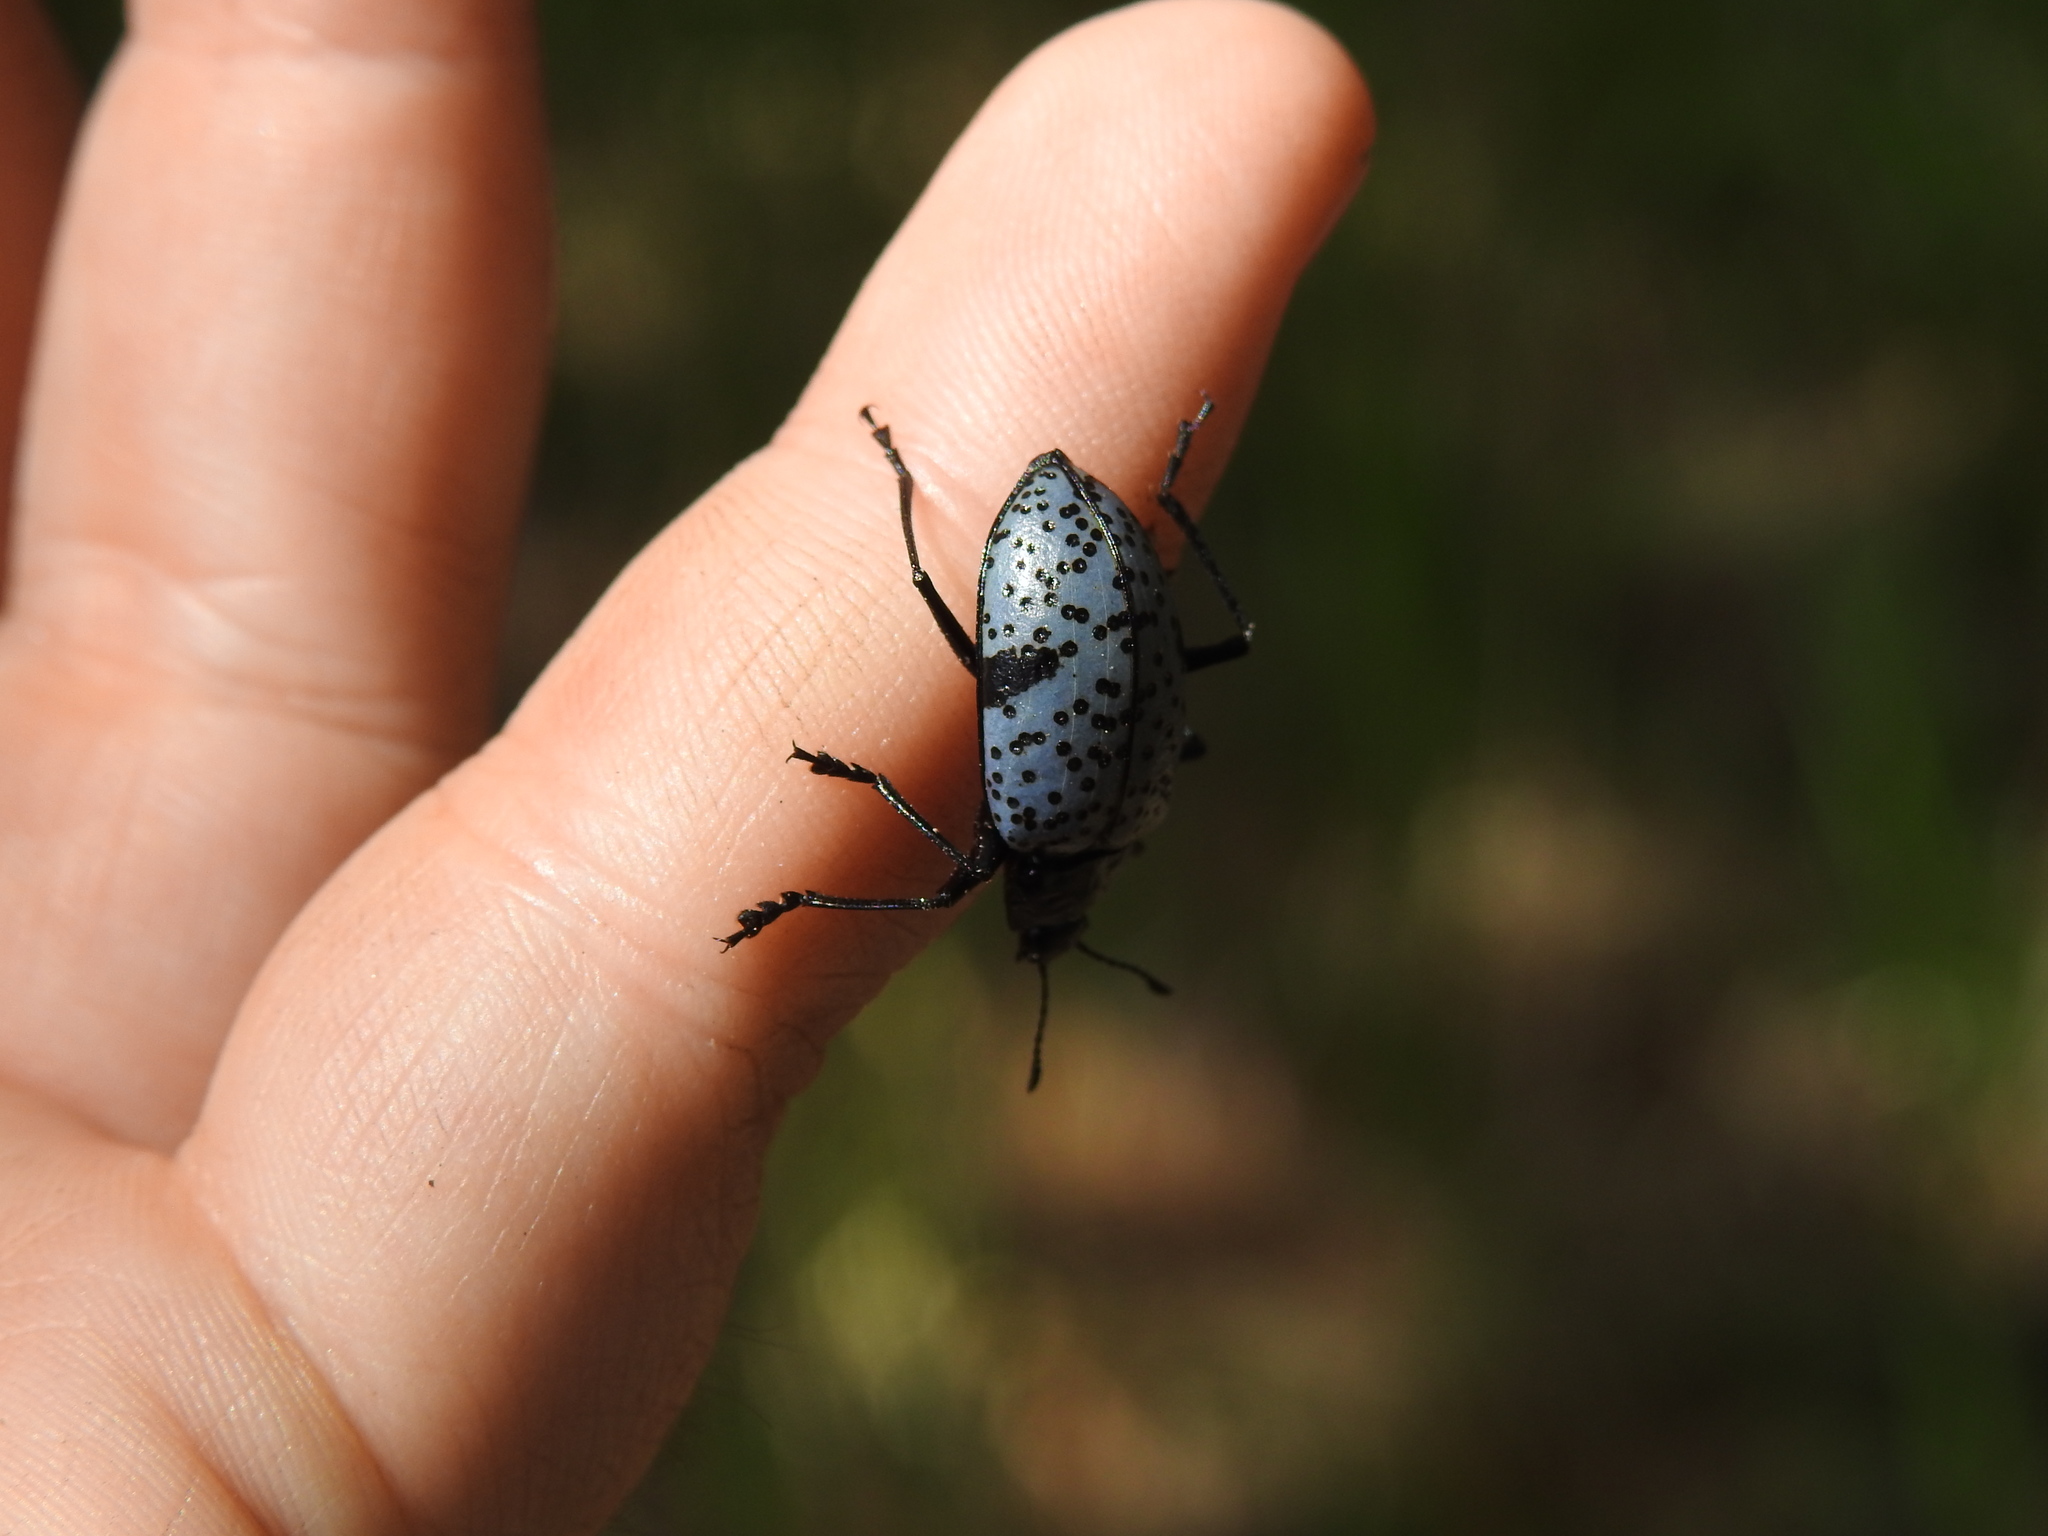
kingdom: Animalia
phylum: Arthropoda
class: Insecta
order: Coleoptera
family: Erotylidae
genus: Gibbifer
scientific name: Gibbifer californicus
